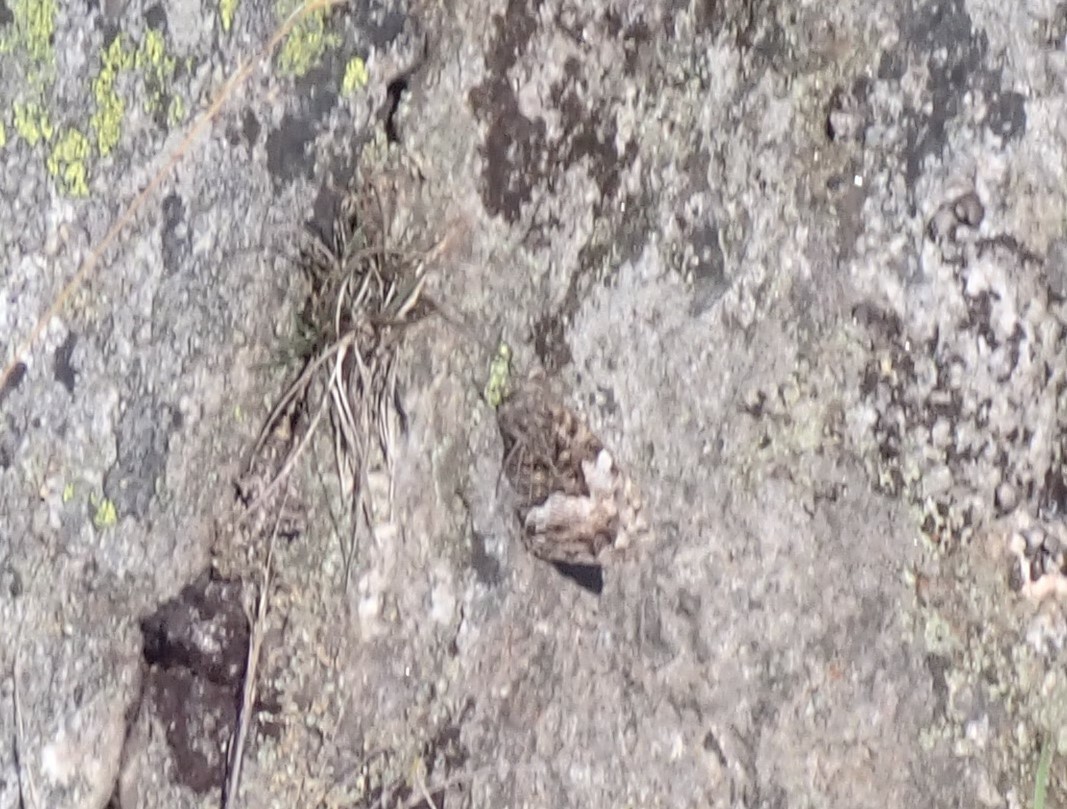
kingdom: Animalia
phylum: Arthropoda
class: Insecta
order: Lepidoptera
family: Nymphalidae
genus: Hipparchia
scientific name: Hipparchia semele
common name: Grayling
